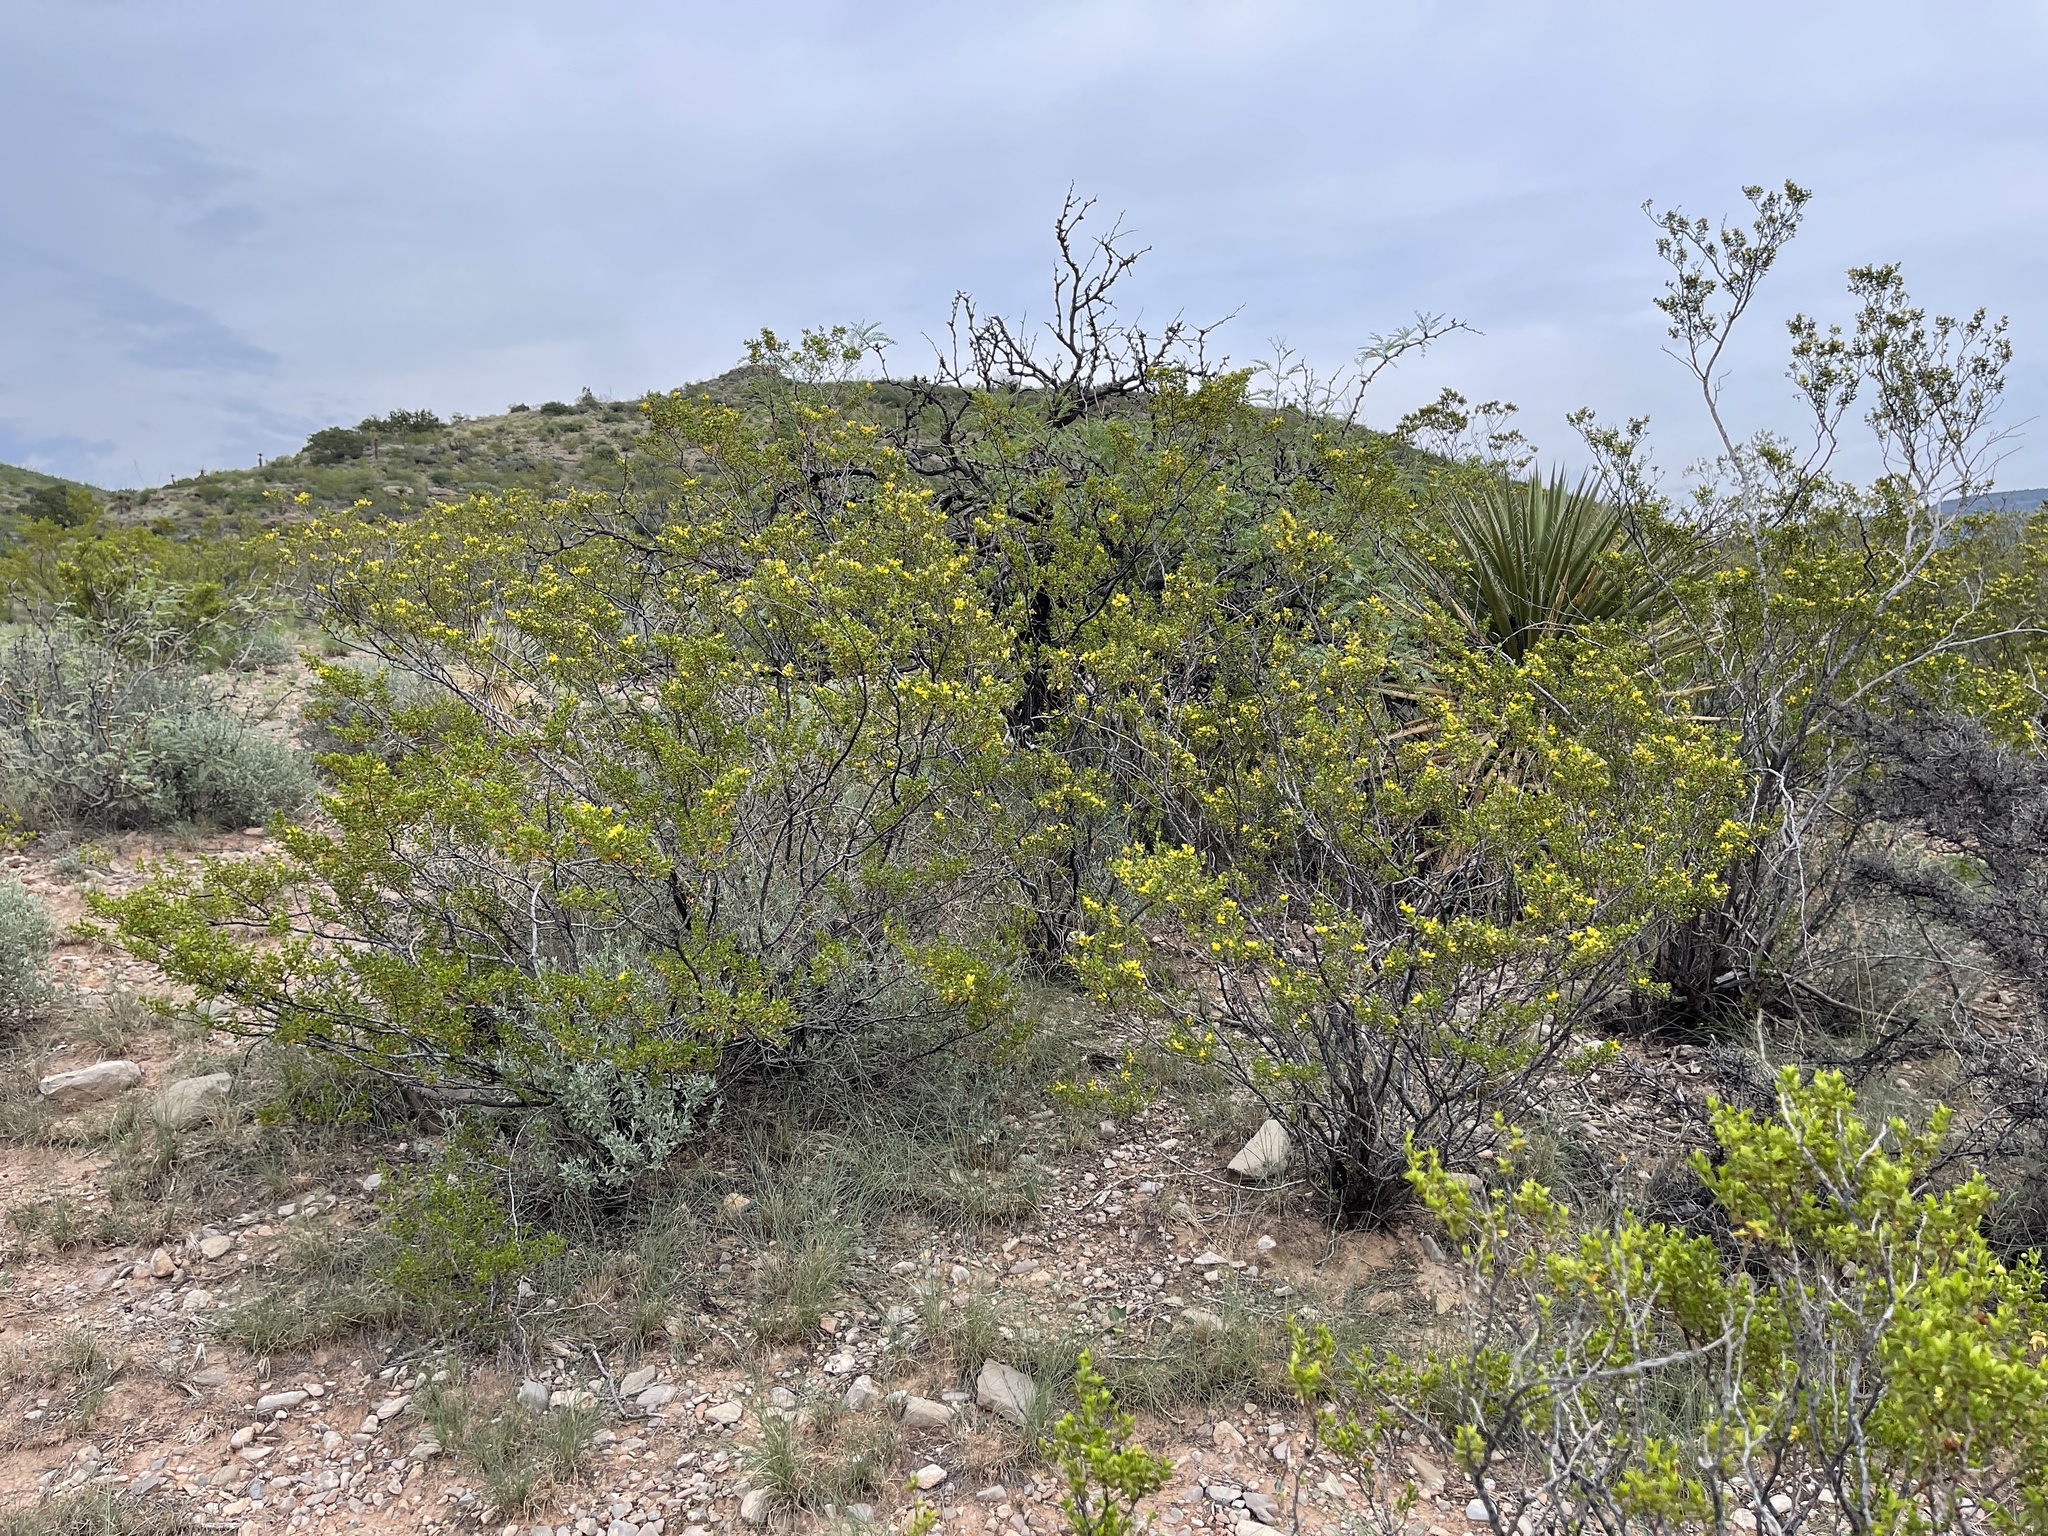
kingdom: Plantae
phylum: Tracheophyta
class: Magnoliopsida
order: Zygophyllales
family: Zygophyllaceae
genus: Larrea
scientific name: Larrea tridentata
